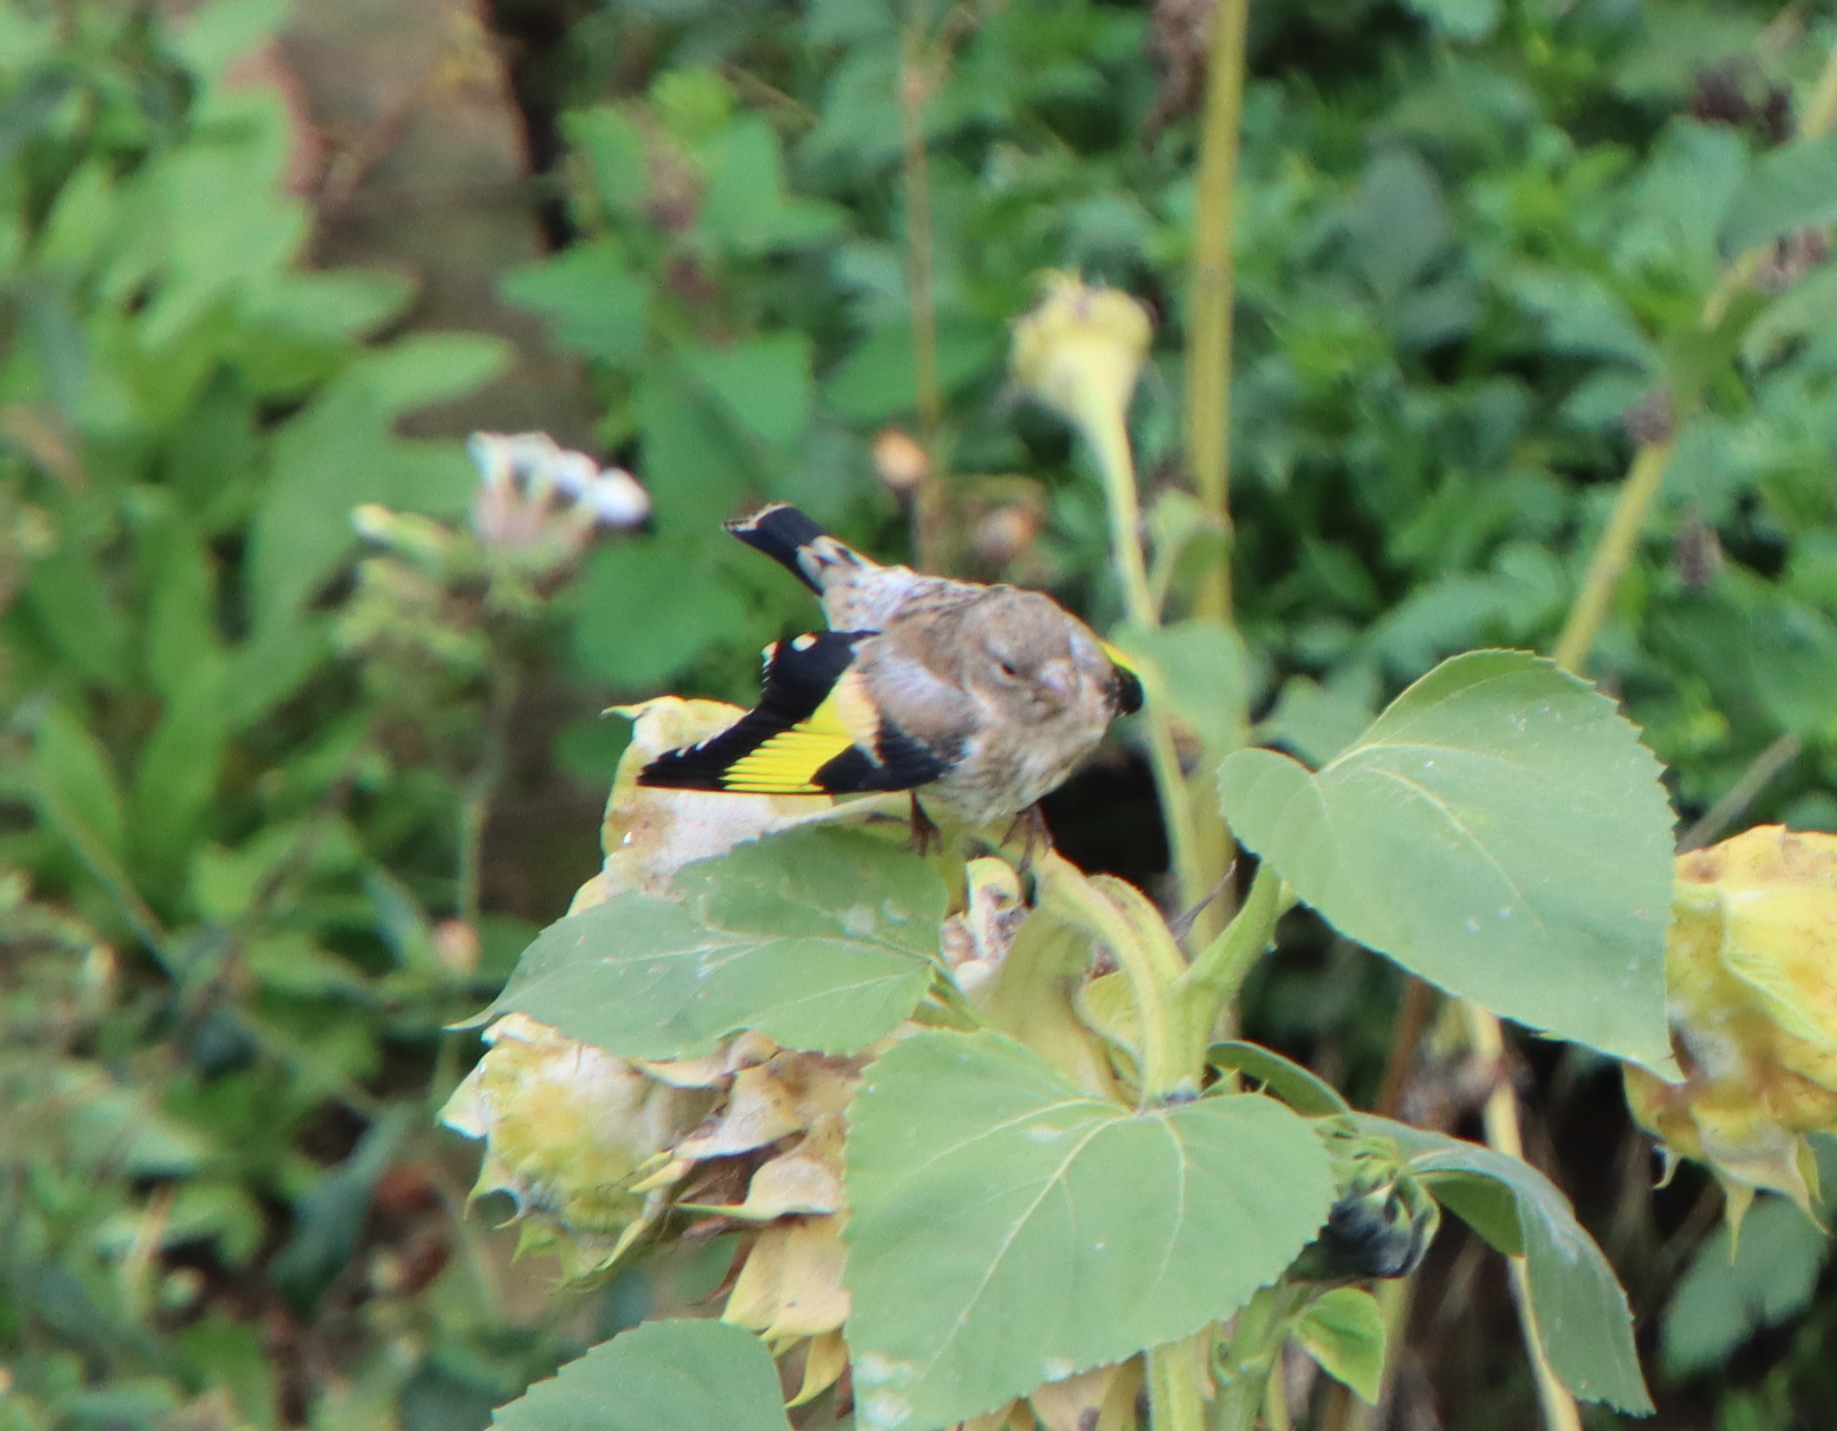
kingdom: Animalia
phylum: Chordata
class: Aves
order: Passeriformes
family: Fringillidae
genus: Carduelis
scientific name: Carduelis carduelis
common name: European goldfinch
